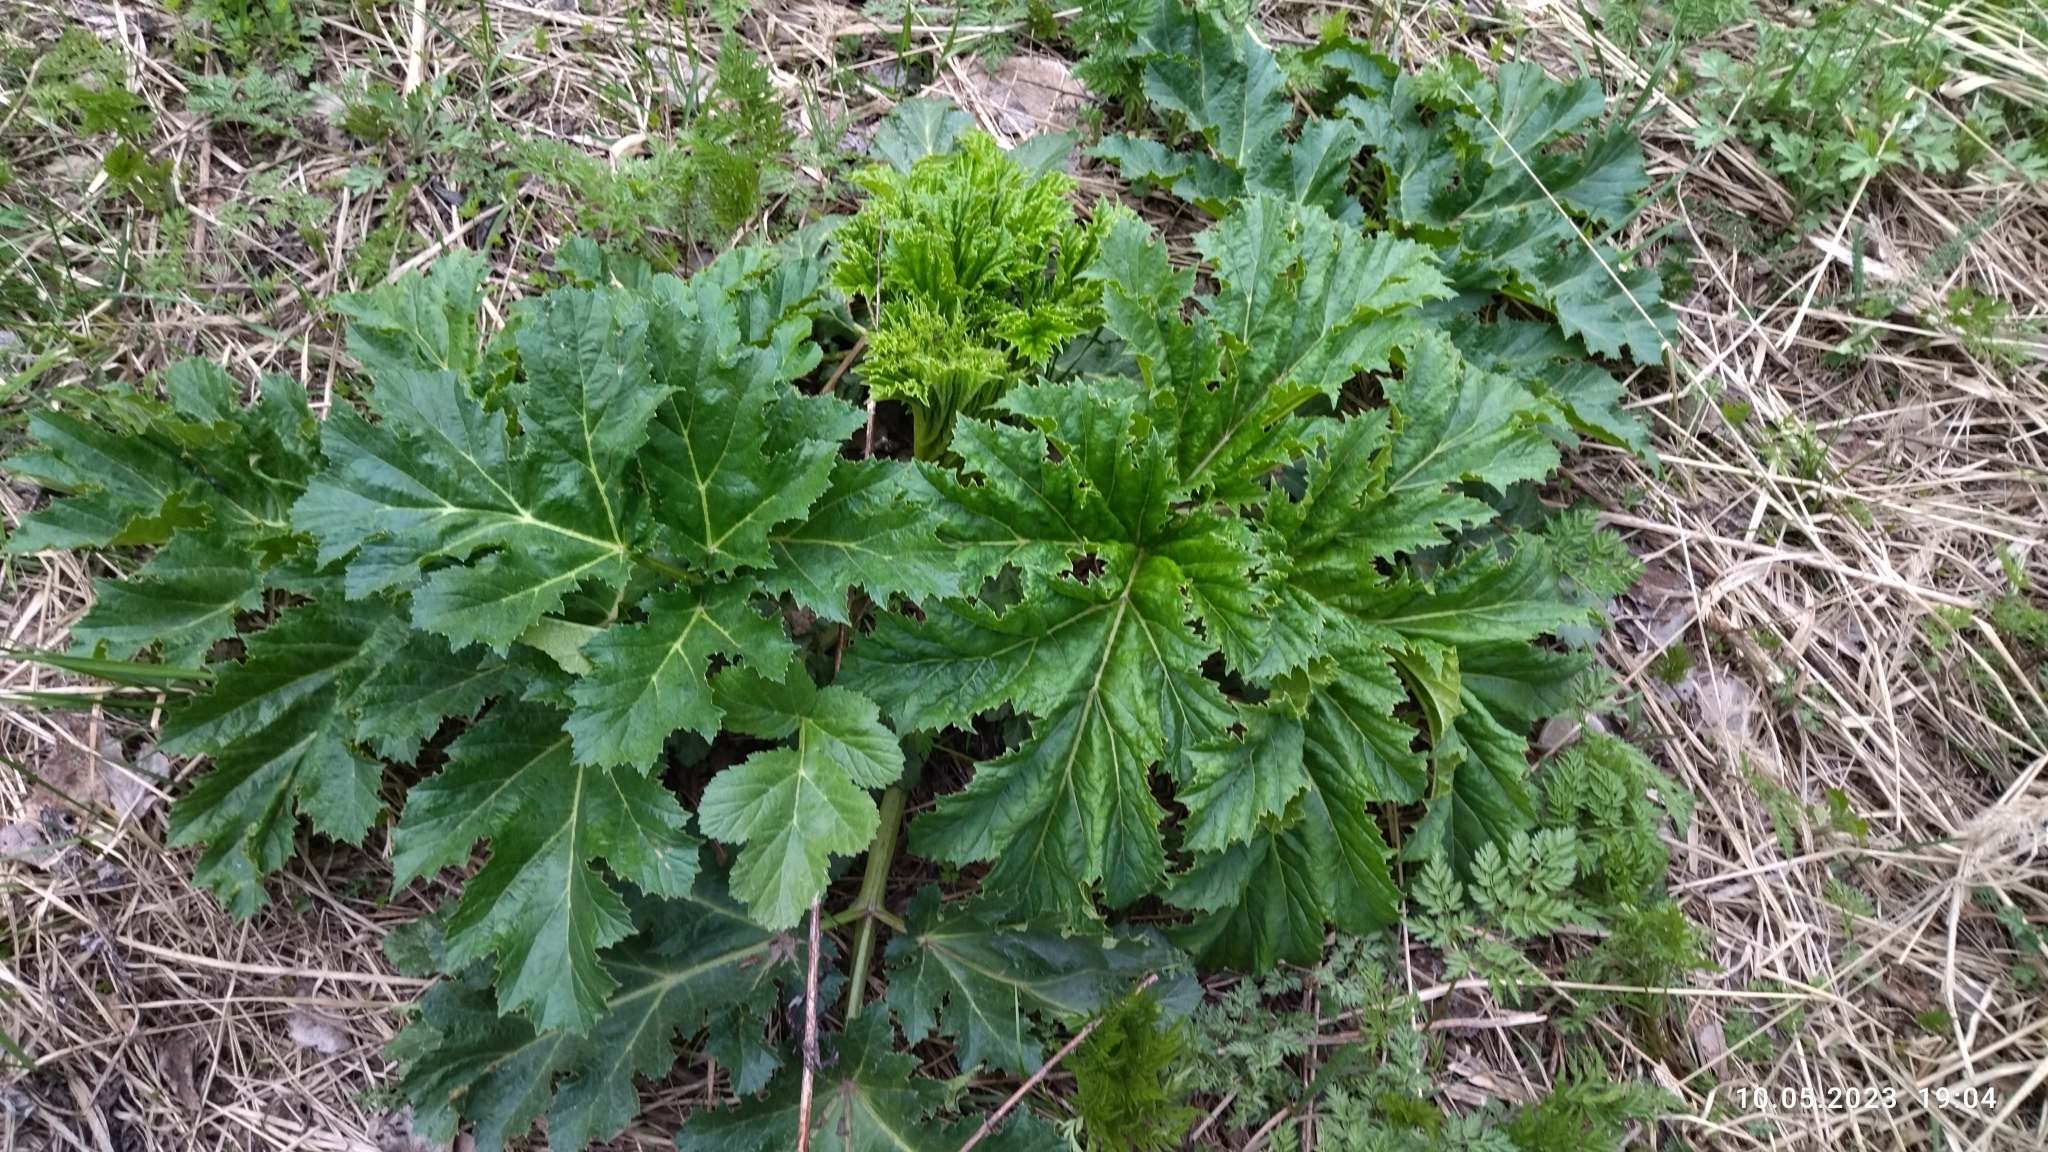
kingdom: Plantae
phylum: Tracheophyta
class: Magnoliopsida
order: Apiales
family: Apiaceae
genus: Heracleum
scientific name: Heracleum sosnowskyi
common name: Sosnowsky's hogweed
